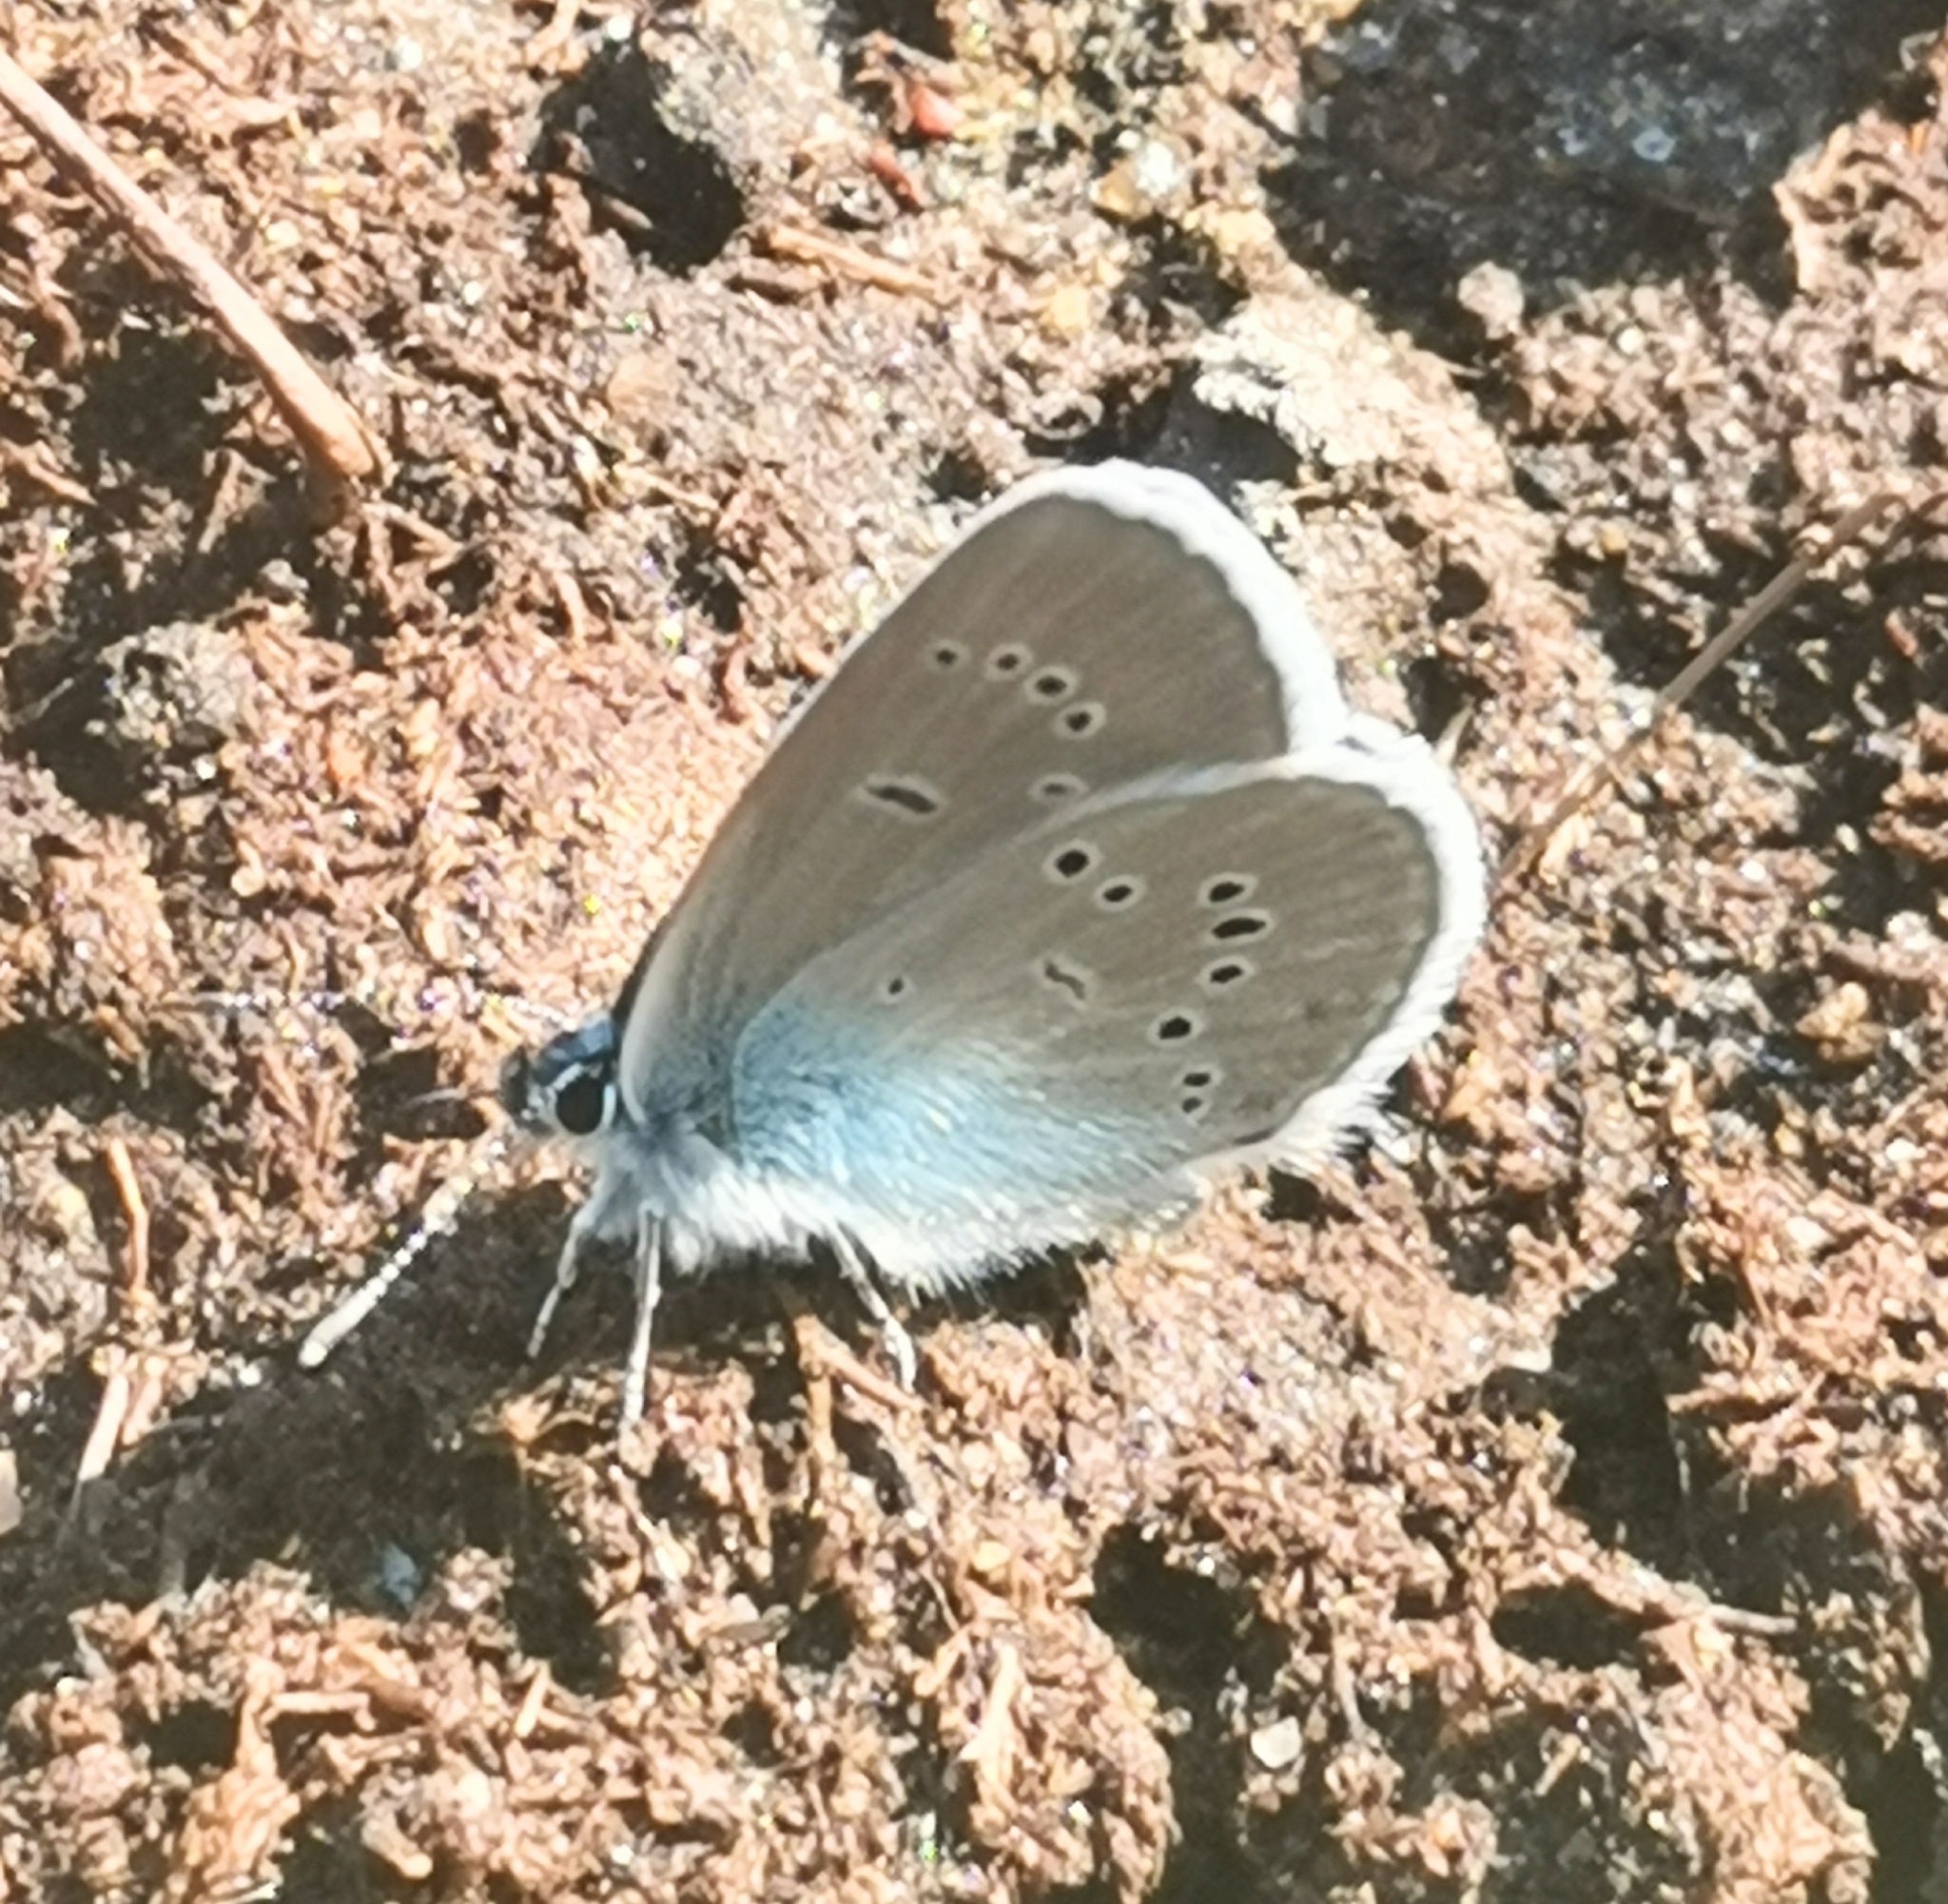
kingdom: Animalia
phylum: Arthropoda
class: Insecta
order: Lepidoptera
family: Lycaenidae
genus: Cyaniris
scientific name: Cyaniris semiargus
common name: Mazarine blue
